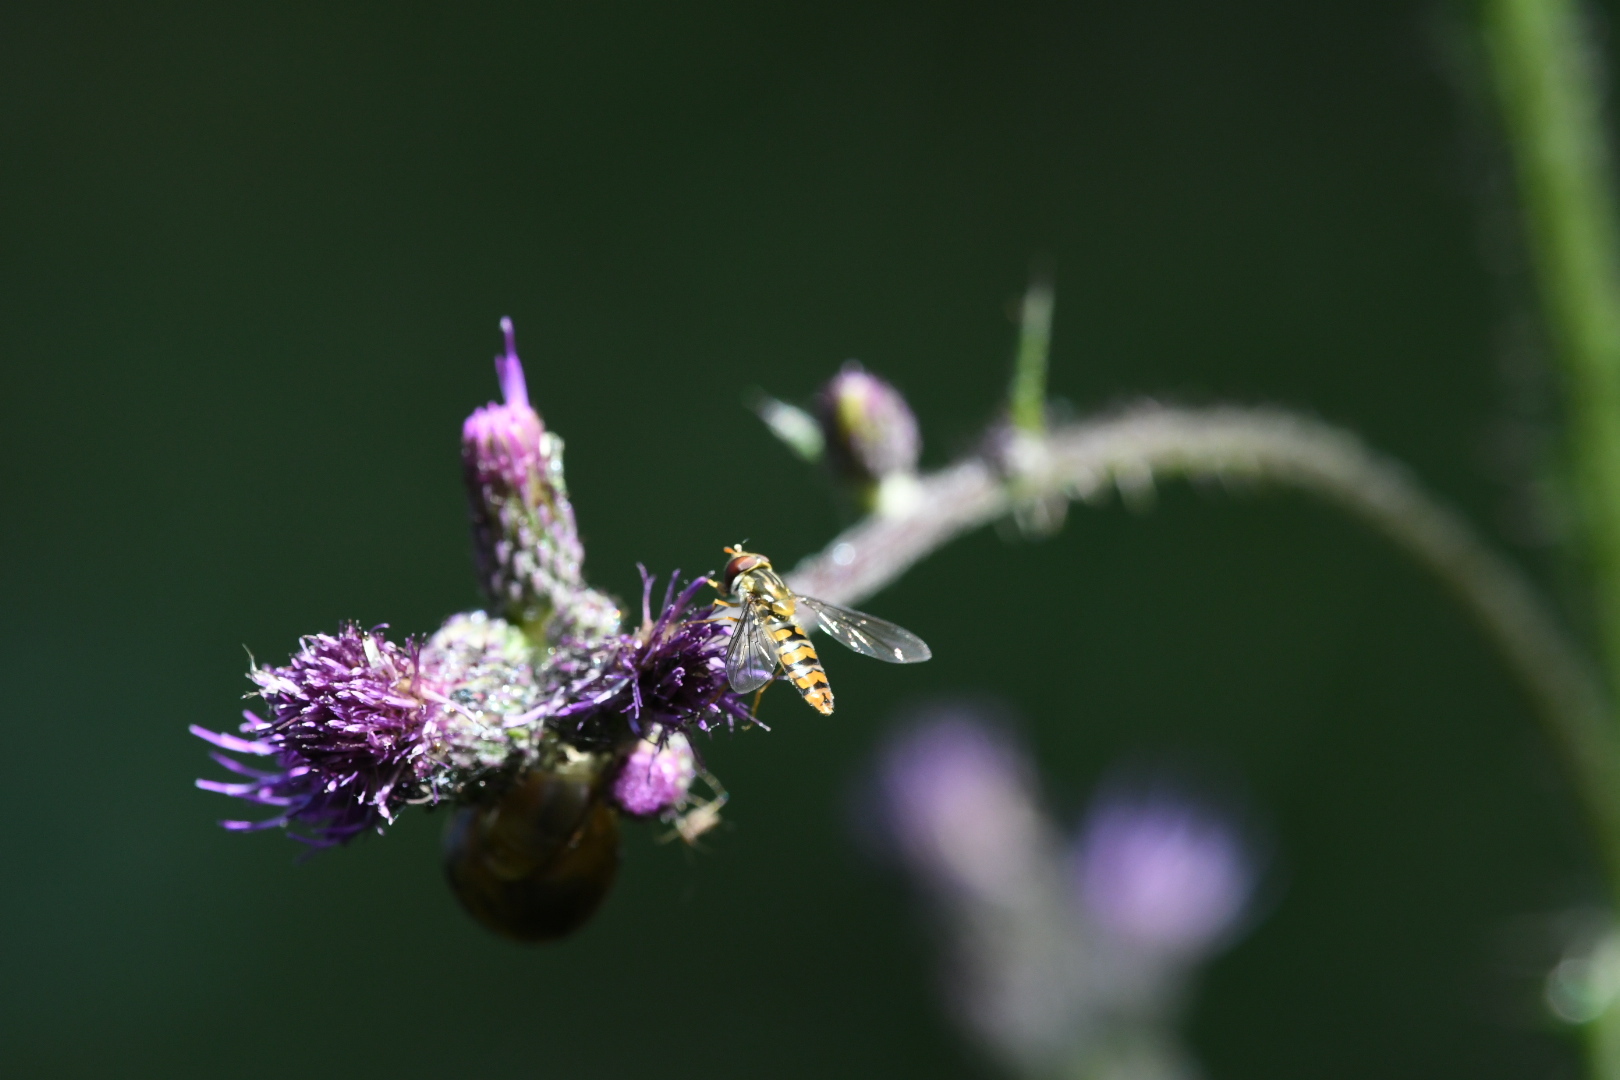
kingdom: Animalia
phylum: Arthropoda
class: Insecta
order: Diptera
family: Syrphidae
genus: Episyrphus
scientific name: Episyrphus balteatus
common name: Marmalade hoverfly
